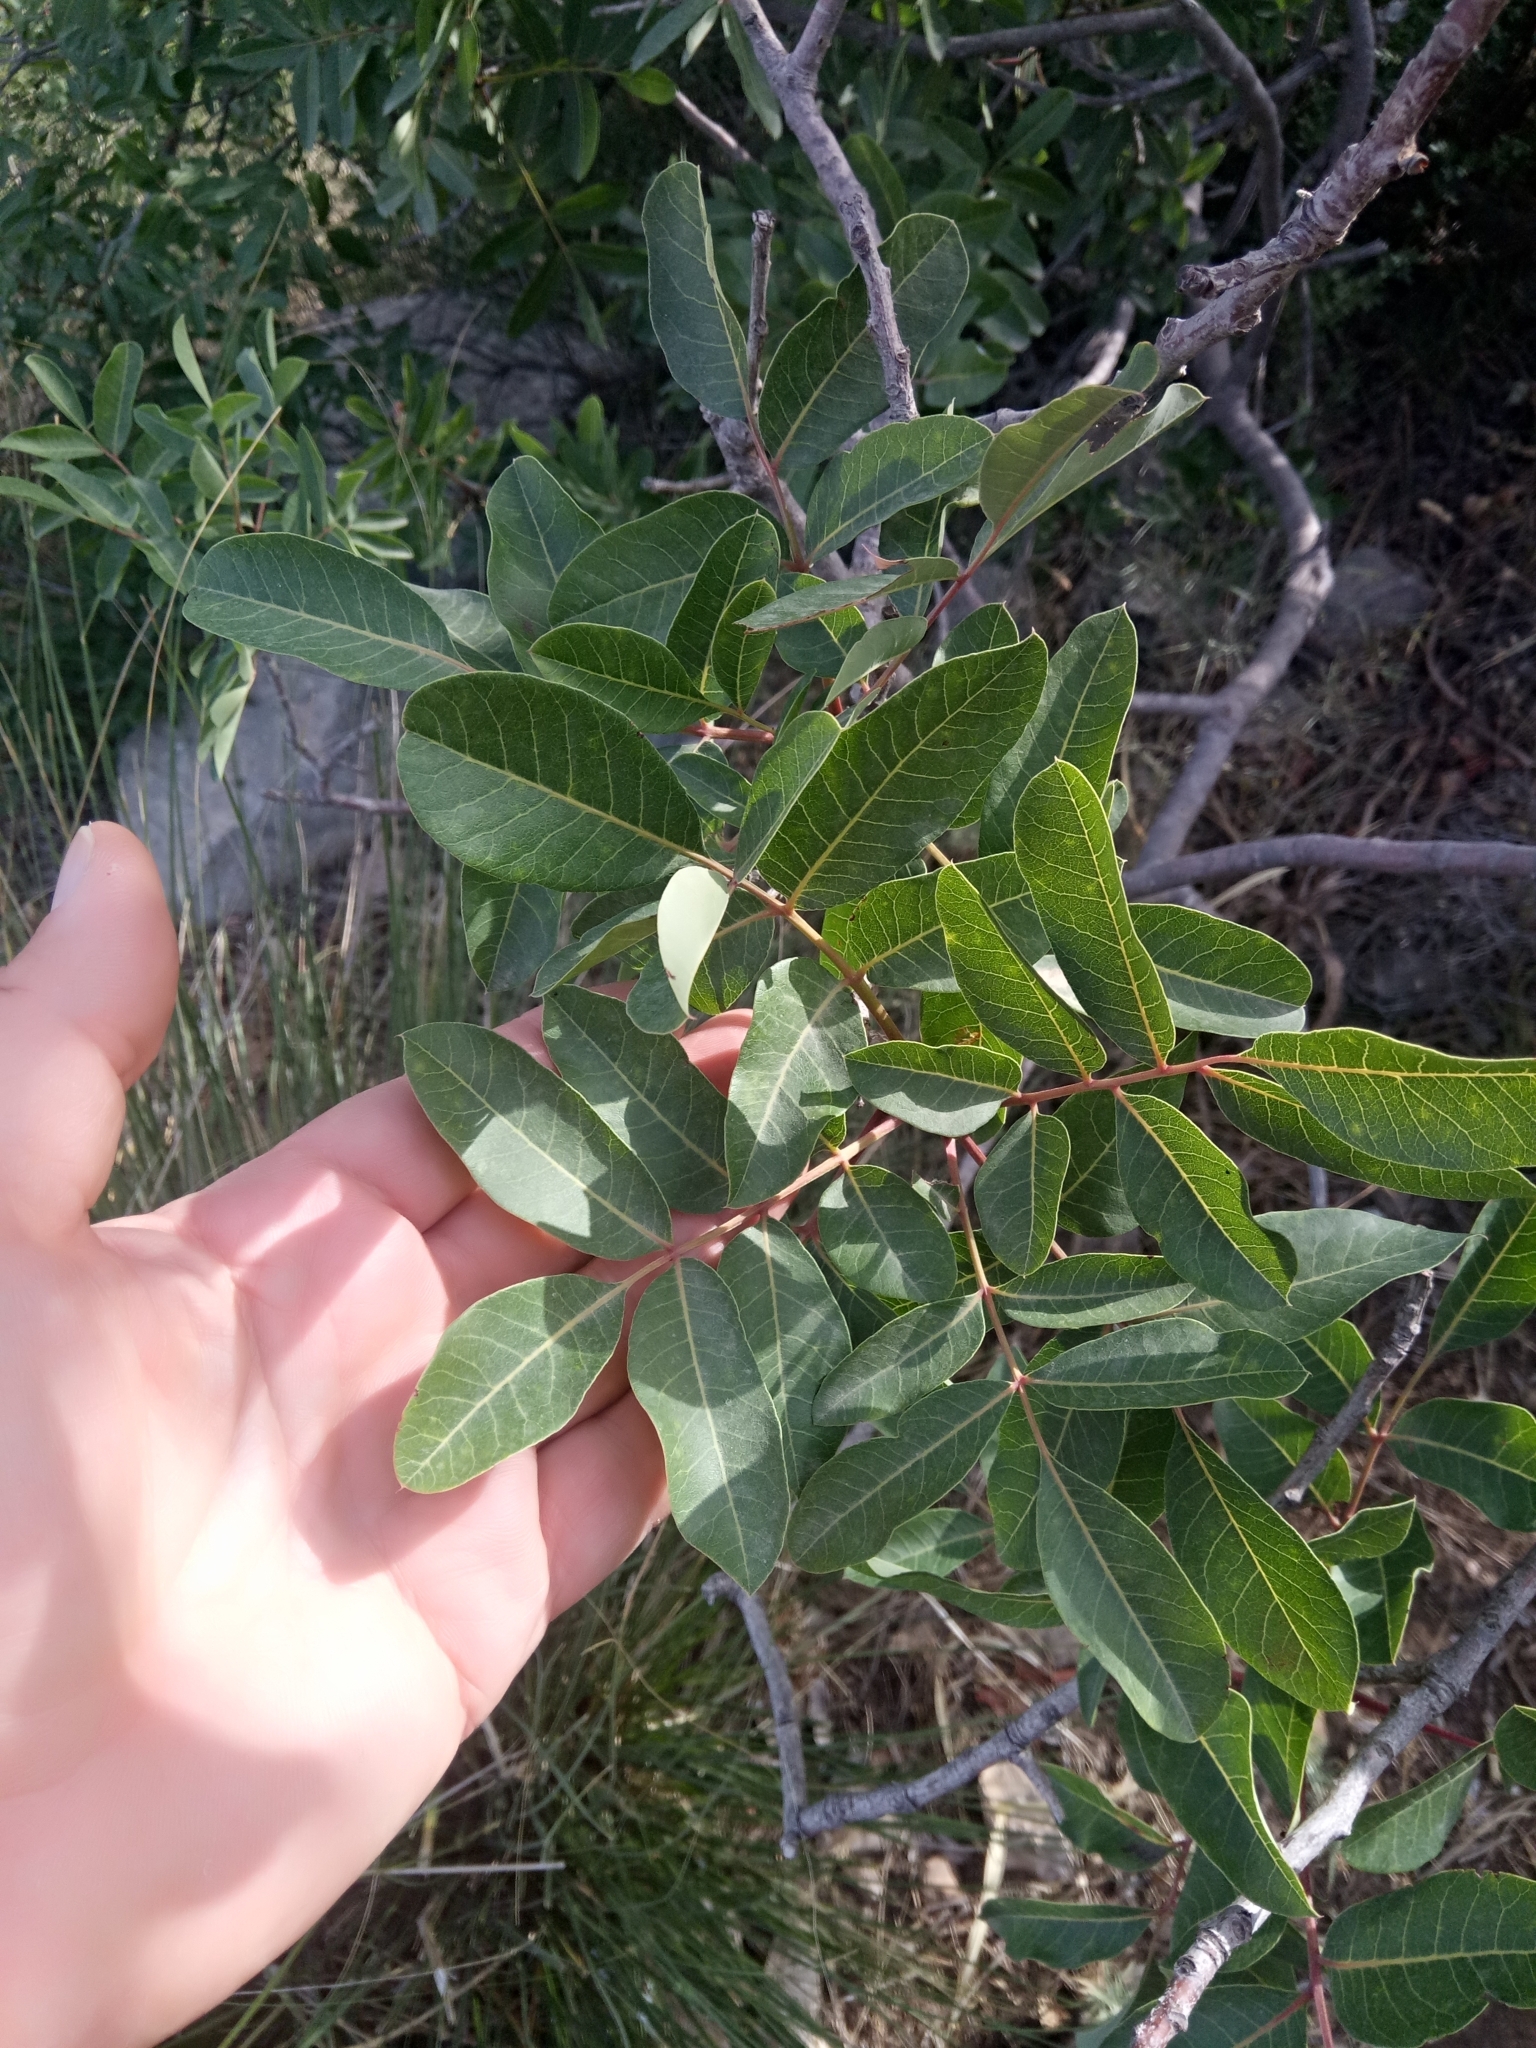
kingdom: Plantae
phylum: Tracheophyta
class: Magnoliopsida
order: Sapindales
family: Anacardiaceae
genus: Pistacia
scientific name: Pistacia terebinthus
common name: Terebinth
